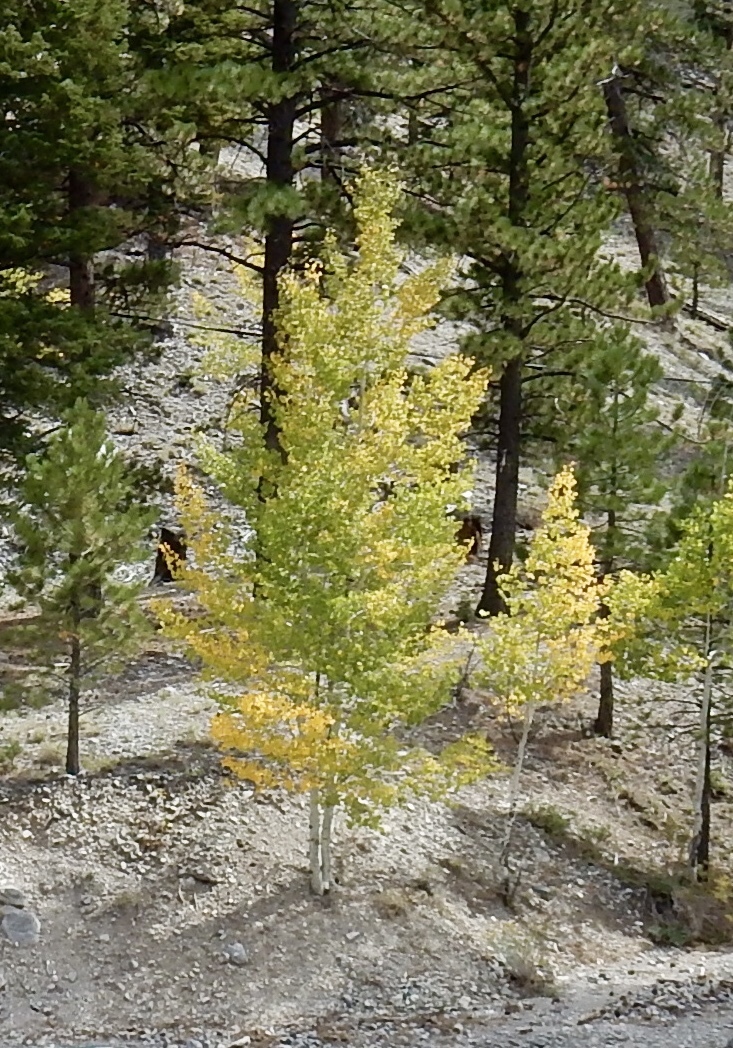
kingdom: Plantae
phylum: Tracheophyta
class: Magnoliopsida
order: Malpighiales
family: Salicaceae
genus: Populus
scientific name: Populus tremuloides
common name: Quaking aspen
